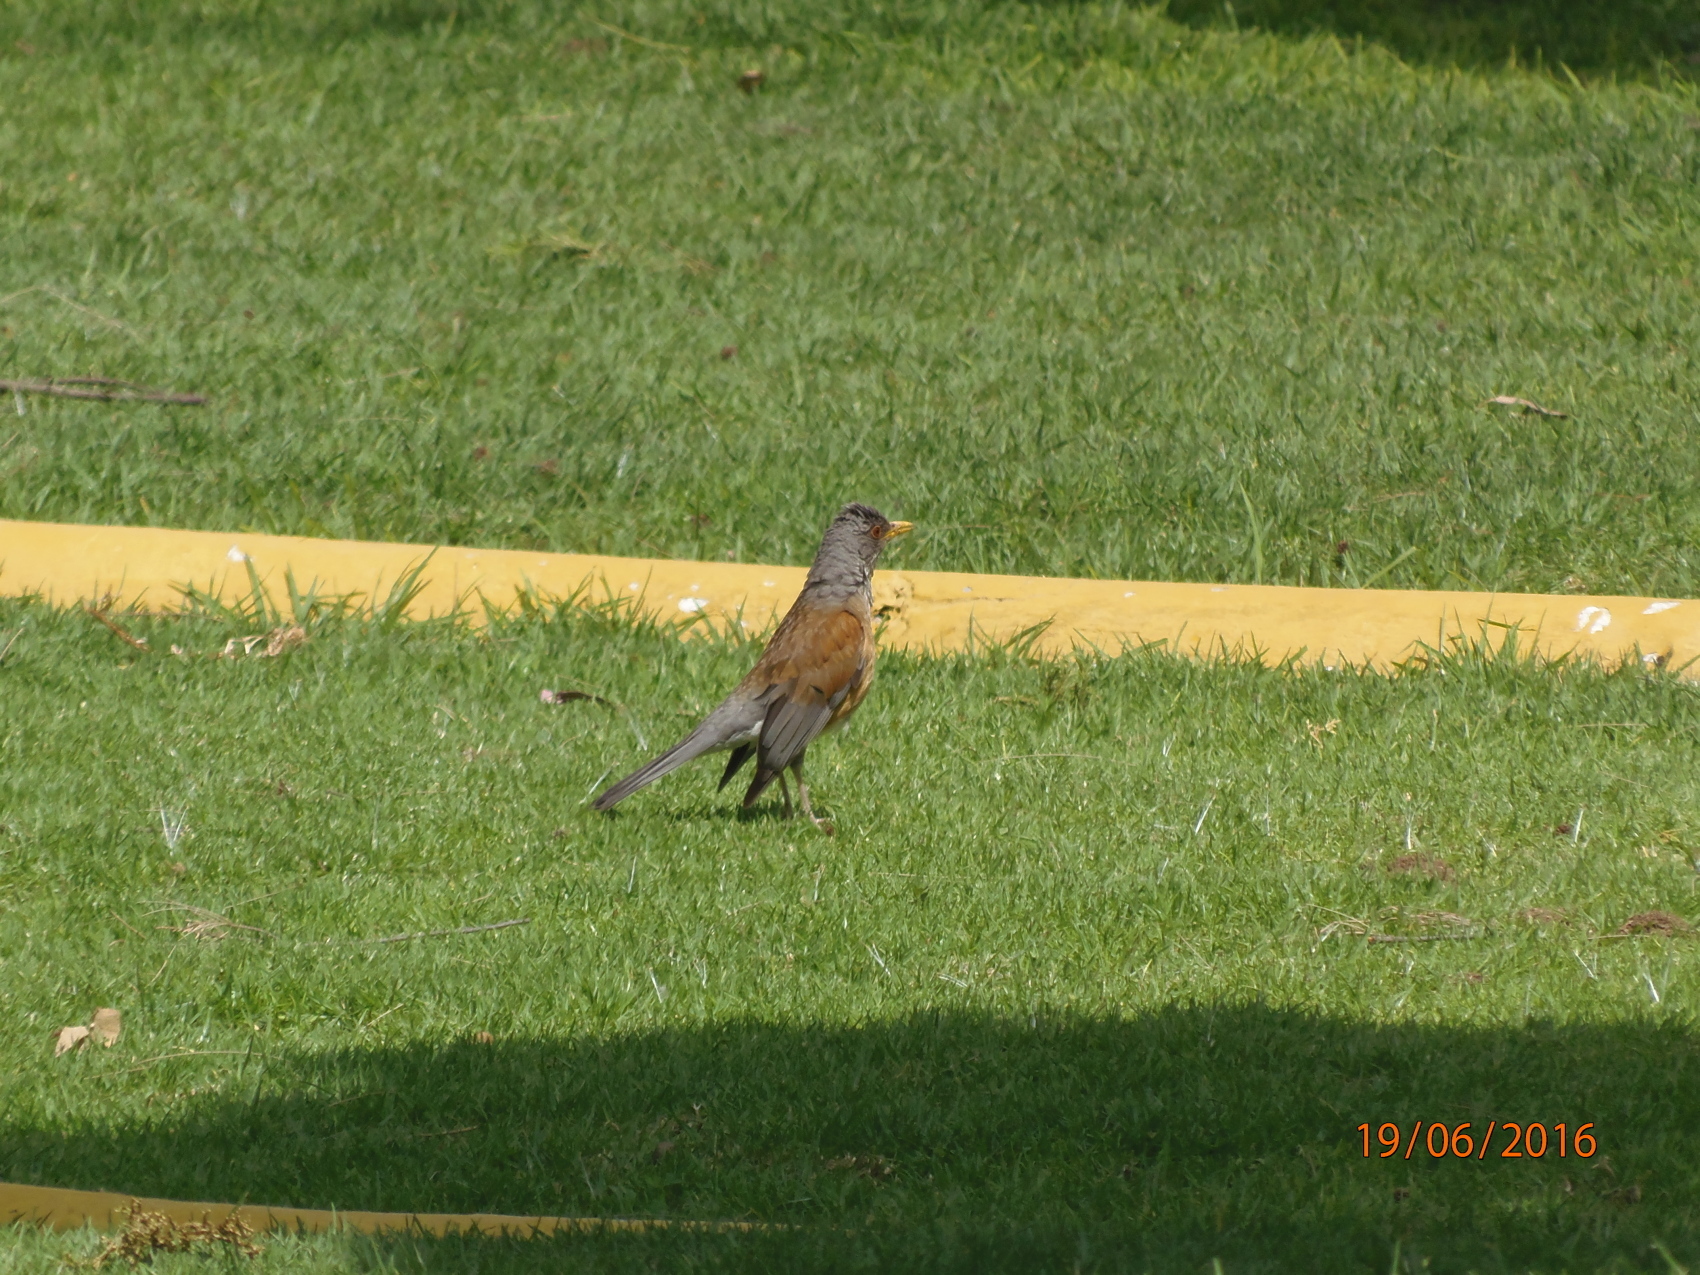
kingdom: Animalia
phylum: Chordata
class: Aves
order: Passeriformes
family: Turdidae
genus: Turdus
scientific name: Turdus rufopalliatus
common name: Rufous-backed robin
